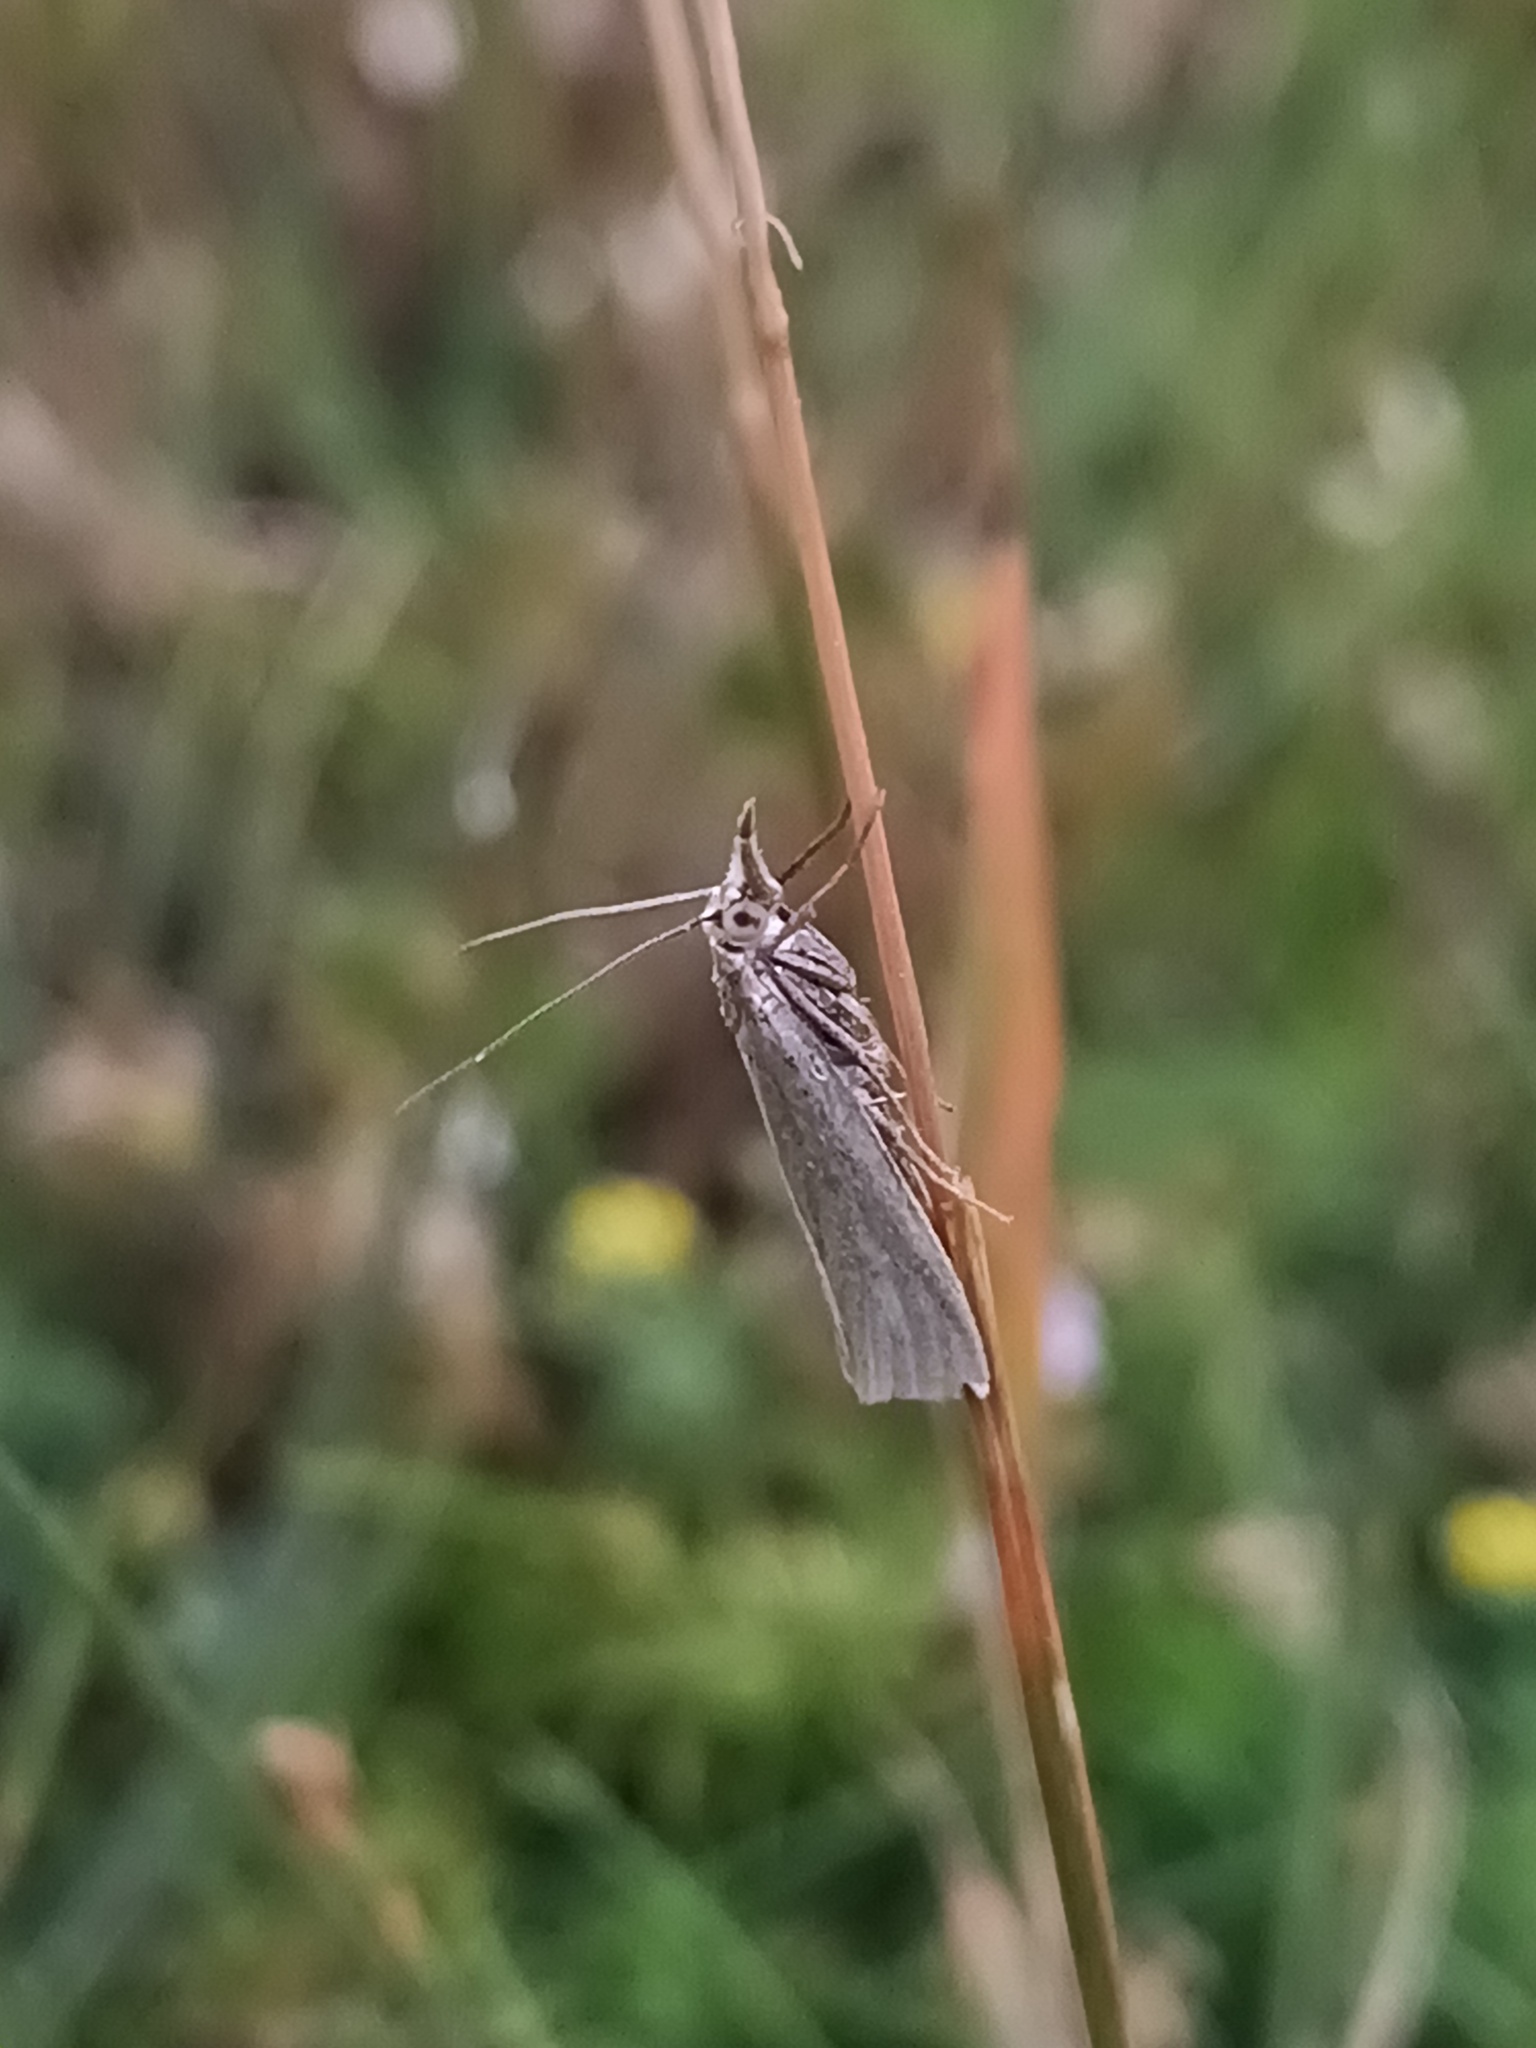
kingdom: Animalia
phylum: Arthropoda
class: Insecta
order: Lepidoptera
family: Crambidae
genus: Crambus
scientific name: Crambus perlellus
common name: Yellow satin veneer
